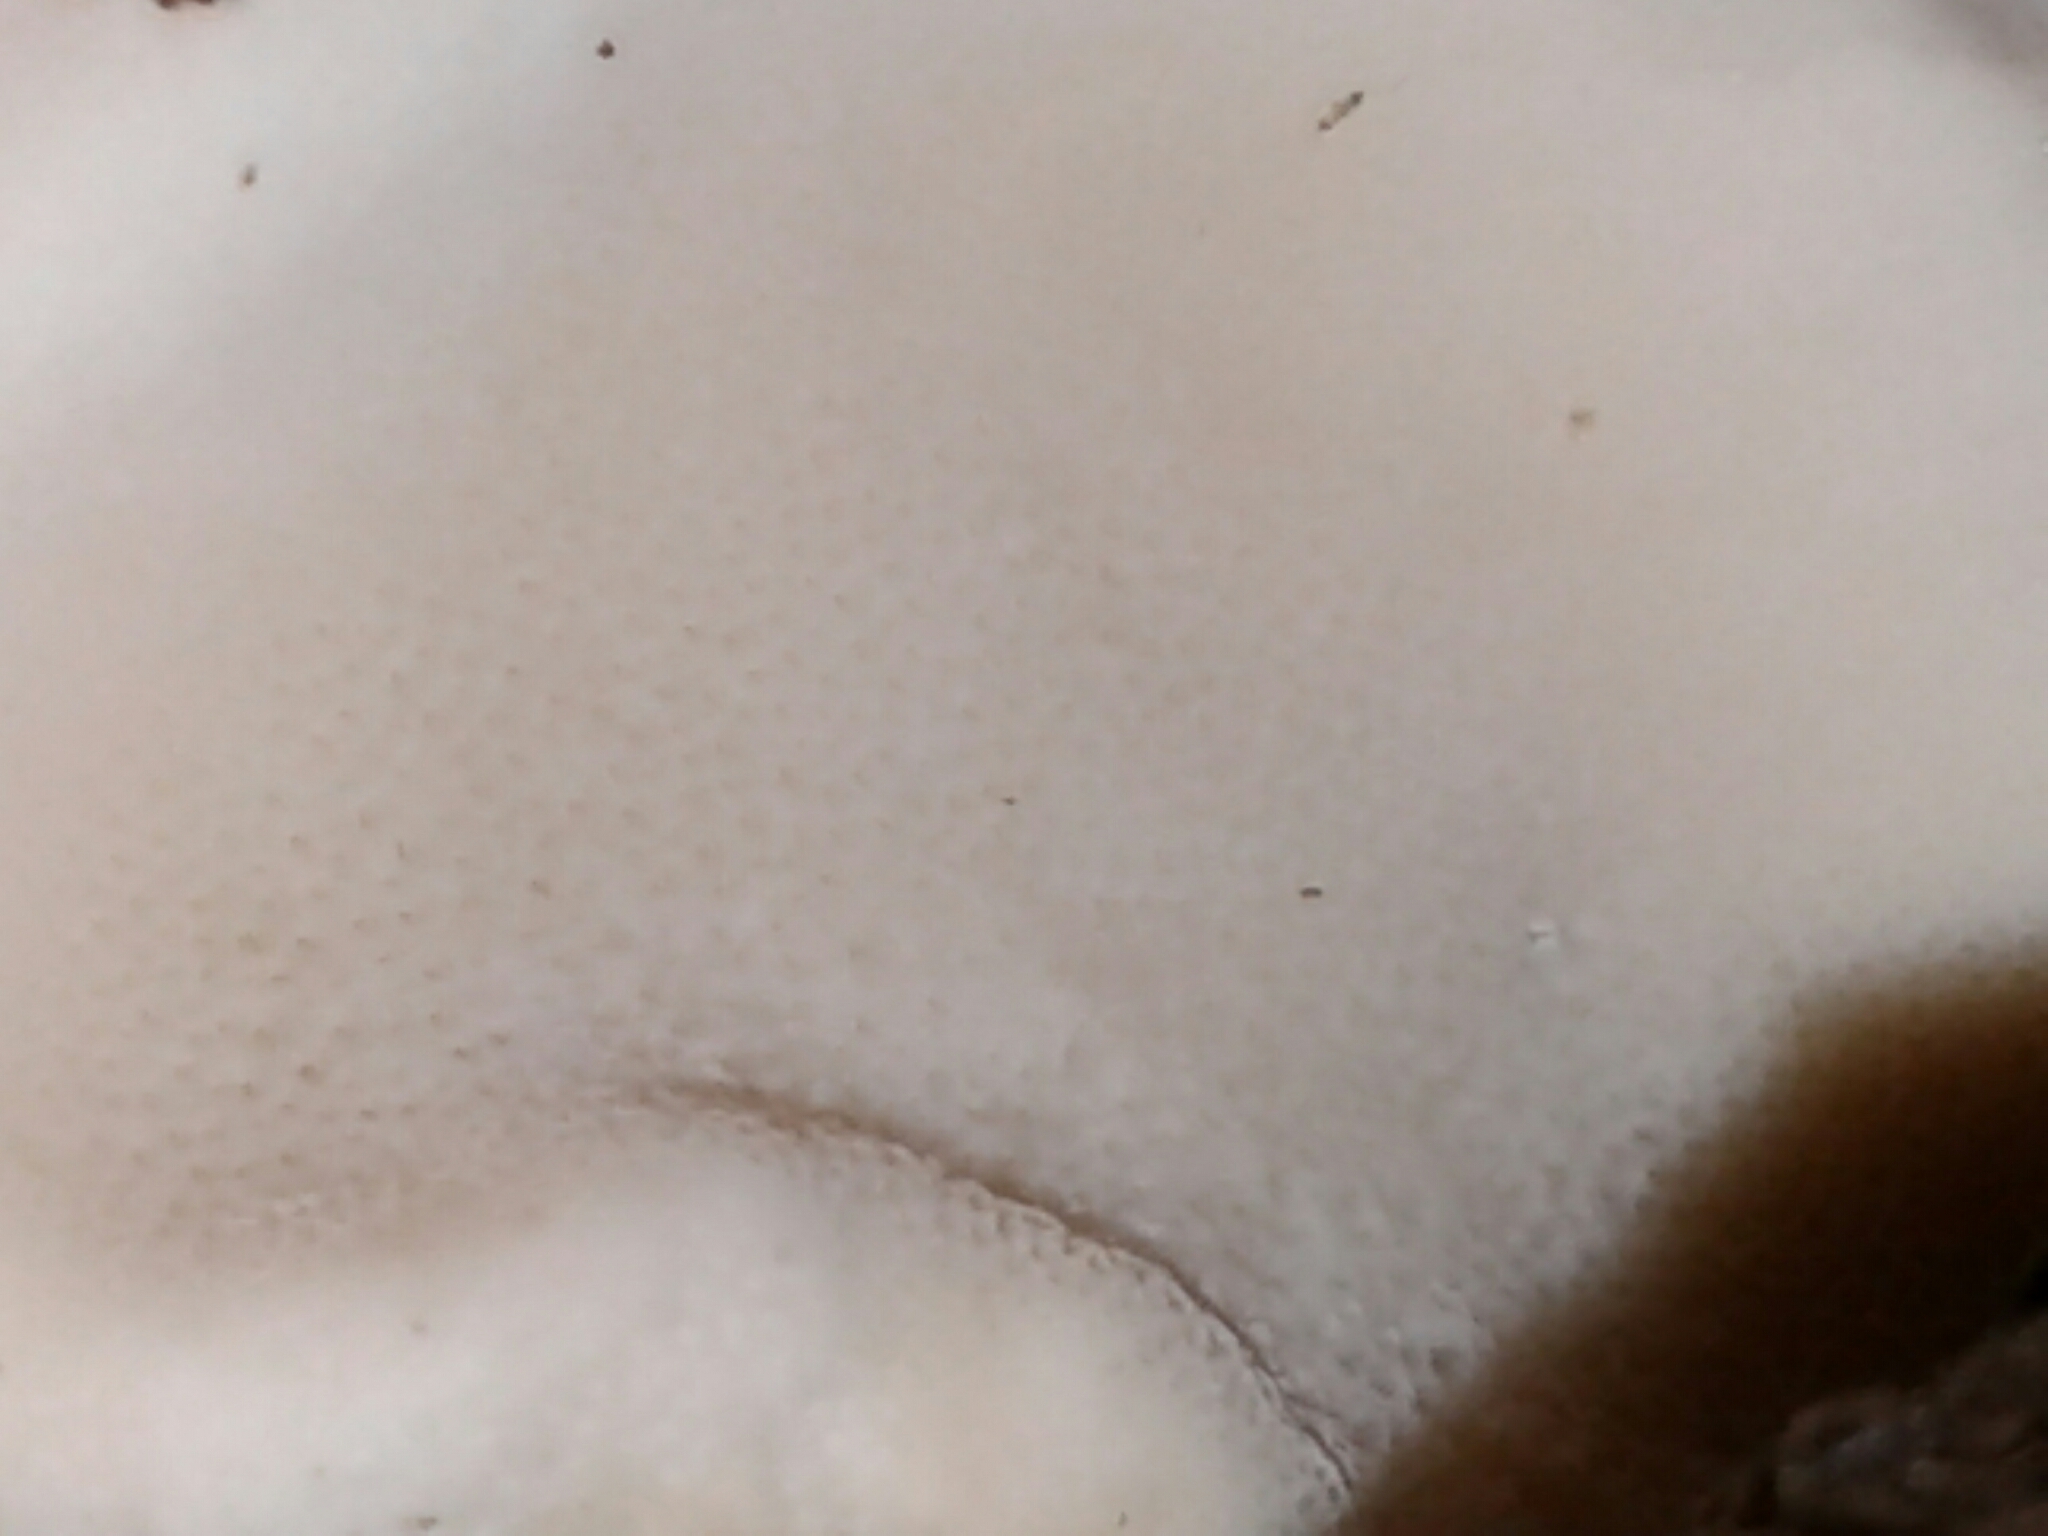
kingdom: Fungi
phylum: Basidiomycota
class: Agaricomycetes
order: Polyporales
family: Fomitopsidaceae
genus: Fomitopsis
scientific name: Fomitopsis betulina
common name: Birch polypore
